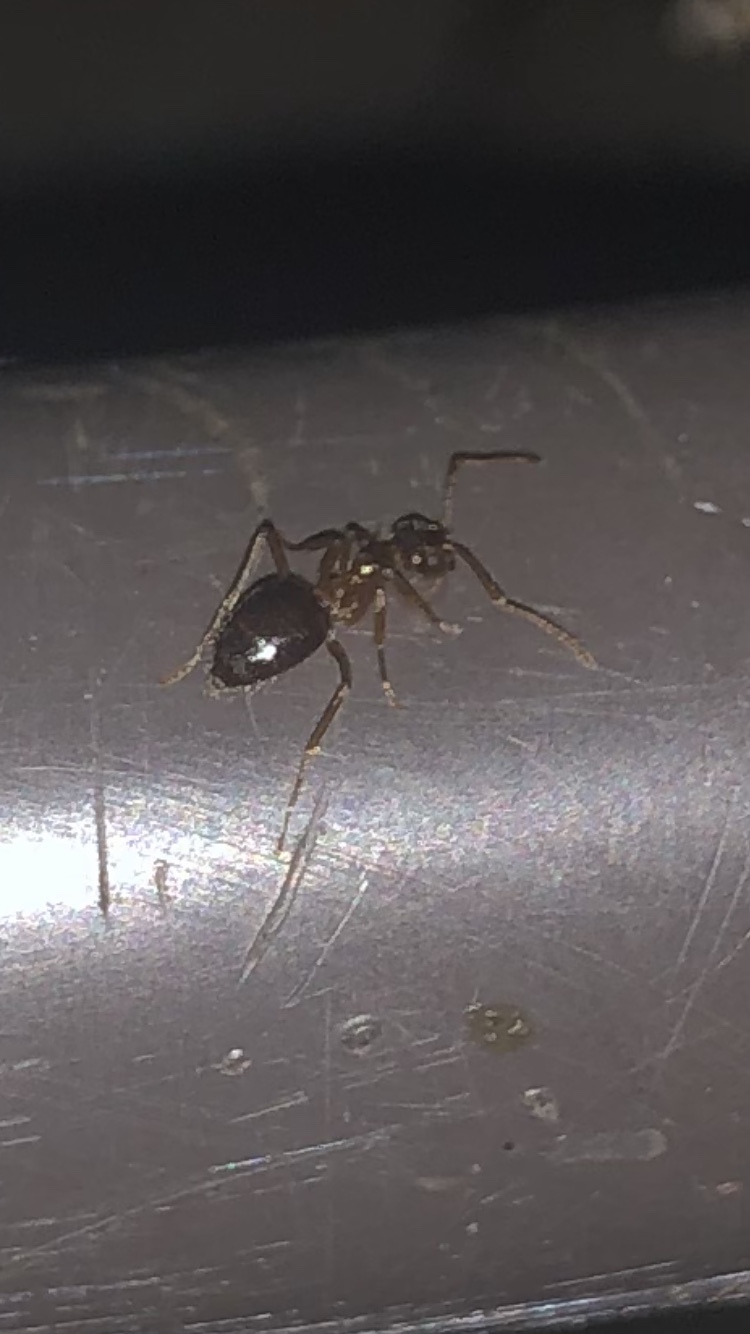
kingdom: Animalia
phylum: Arthropoda
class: Insecta
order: Hymenoptera
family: Formicidae
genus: Prenolepis
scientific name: Prenolepis imparis
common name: Small honey ant
